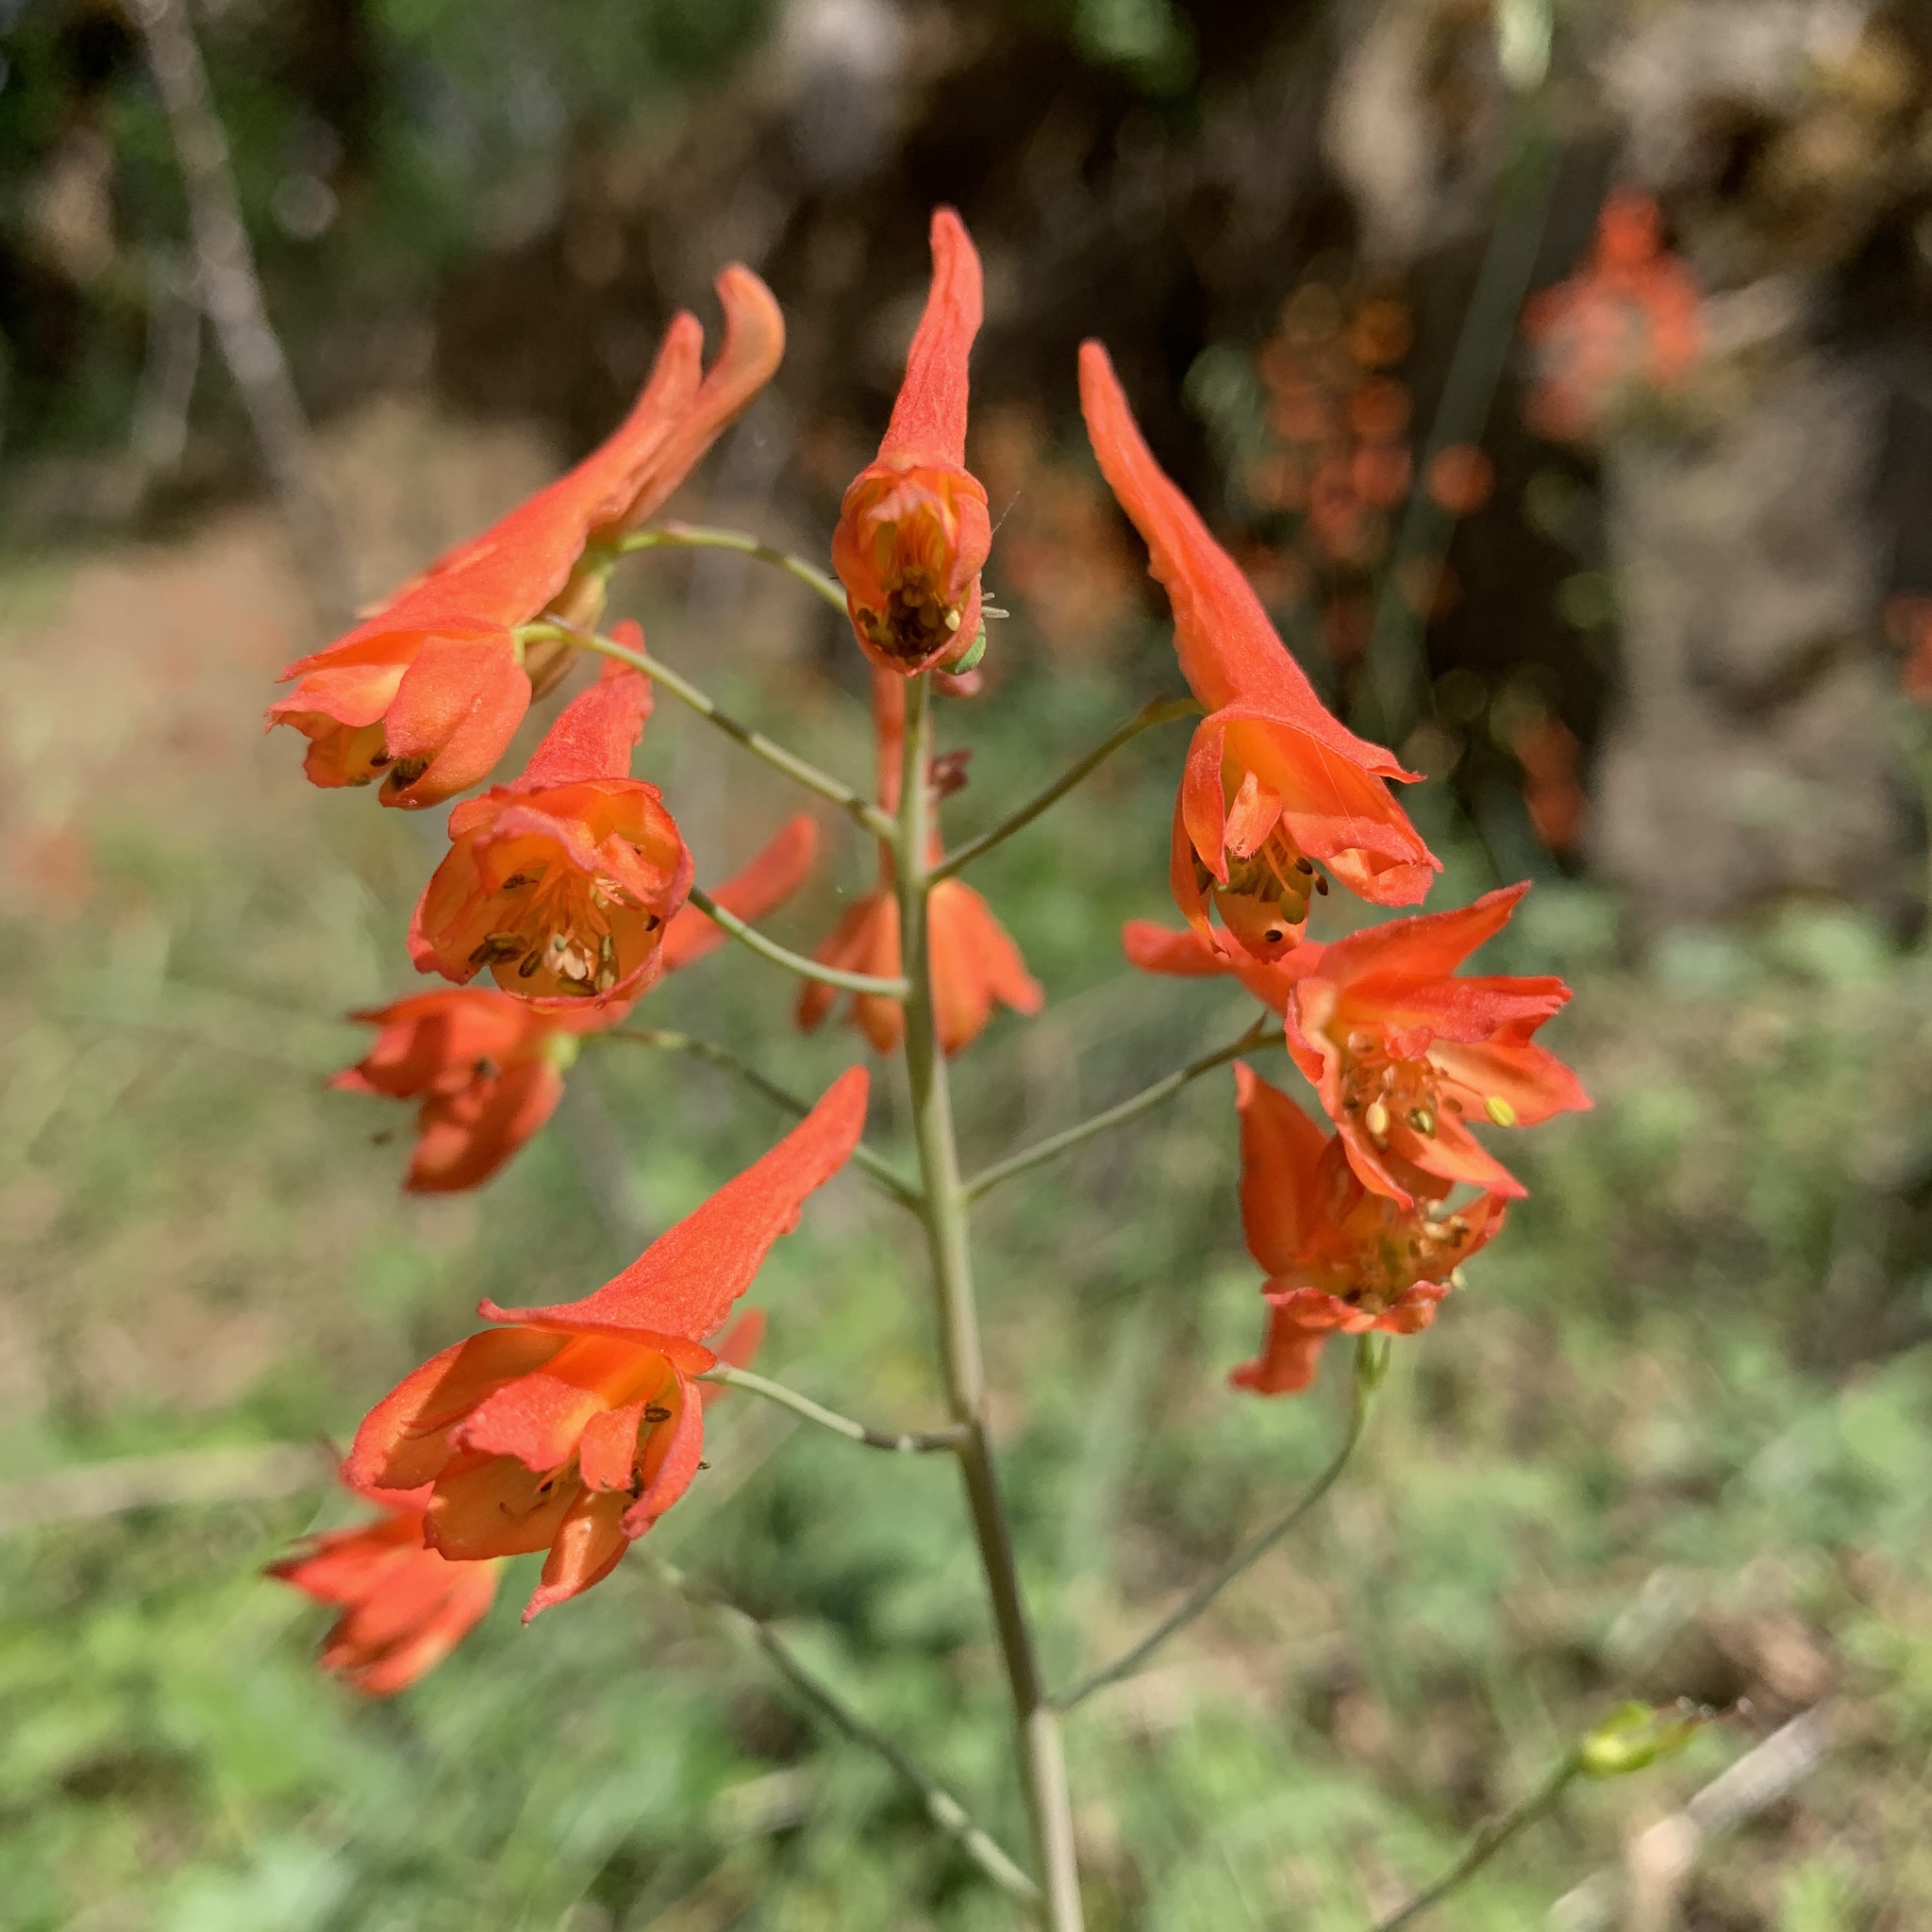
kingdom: Plantae
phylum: Tracheophyta
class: Magnoliopsida
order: Ranunculales
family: Ranunculaceae
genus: Delphinium
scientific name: Delphinium nudicaule
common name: Red larkspur
